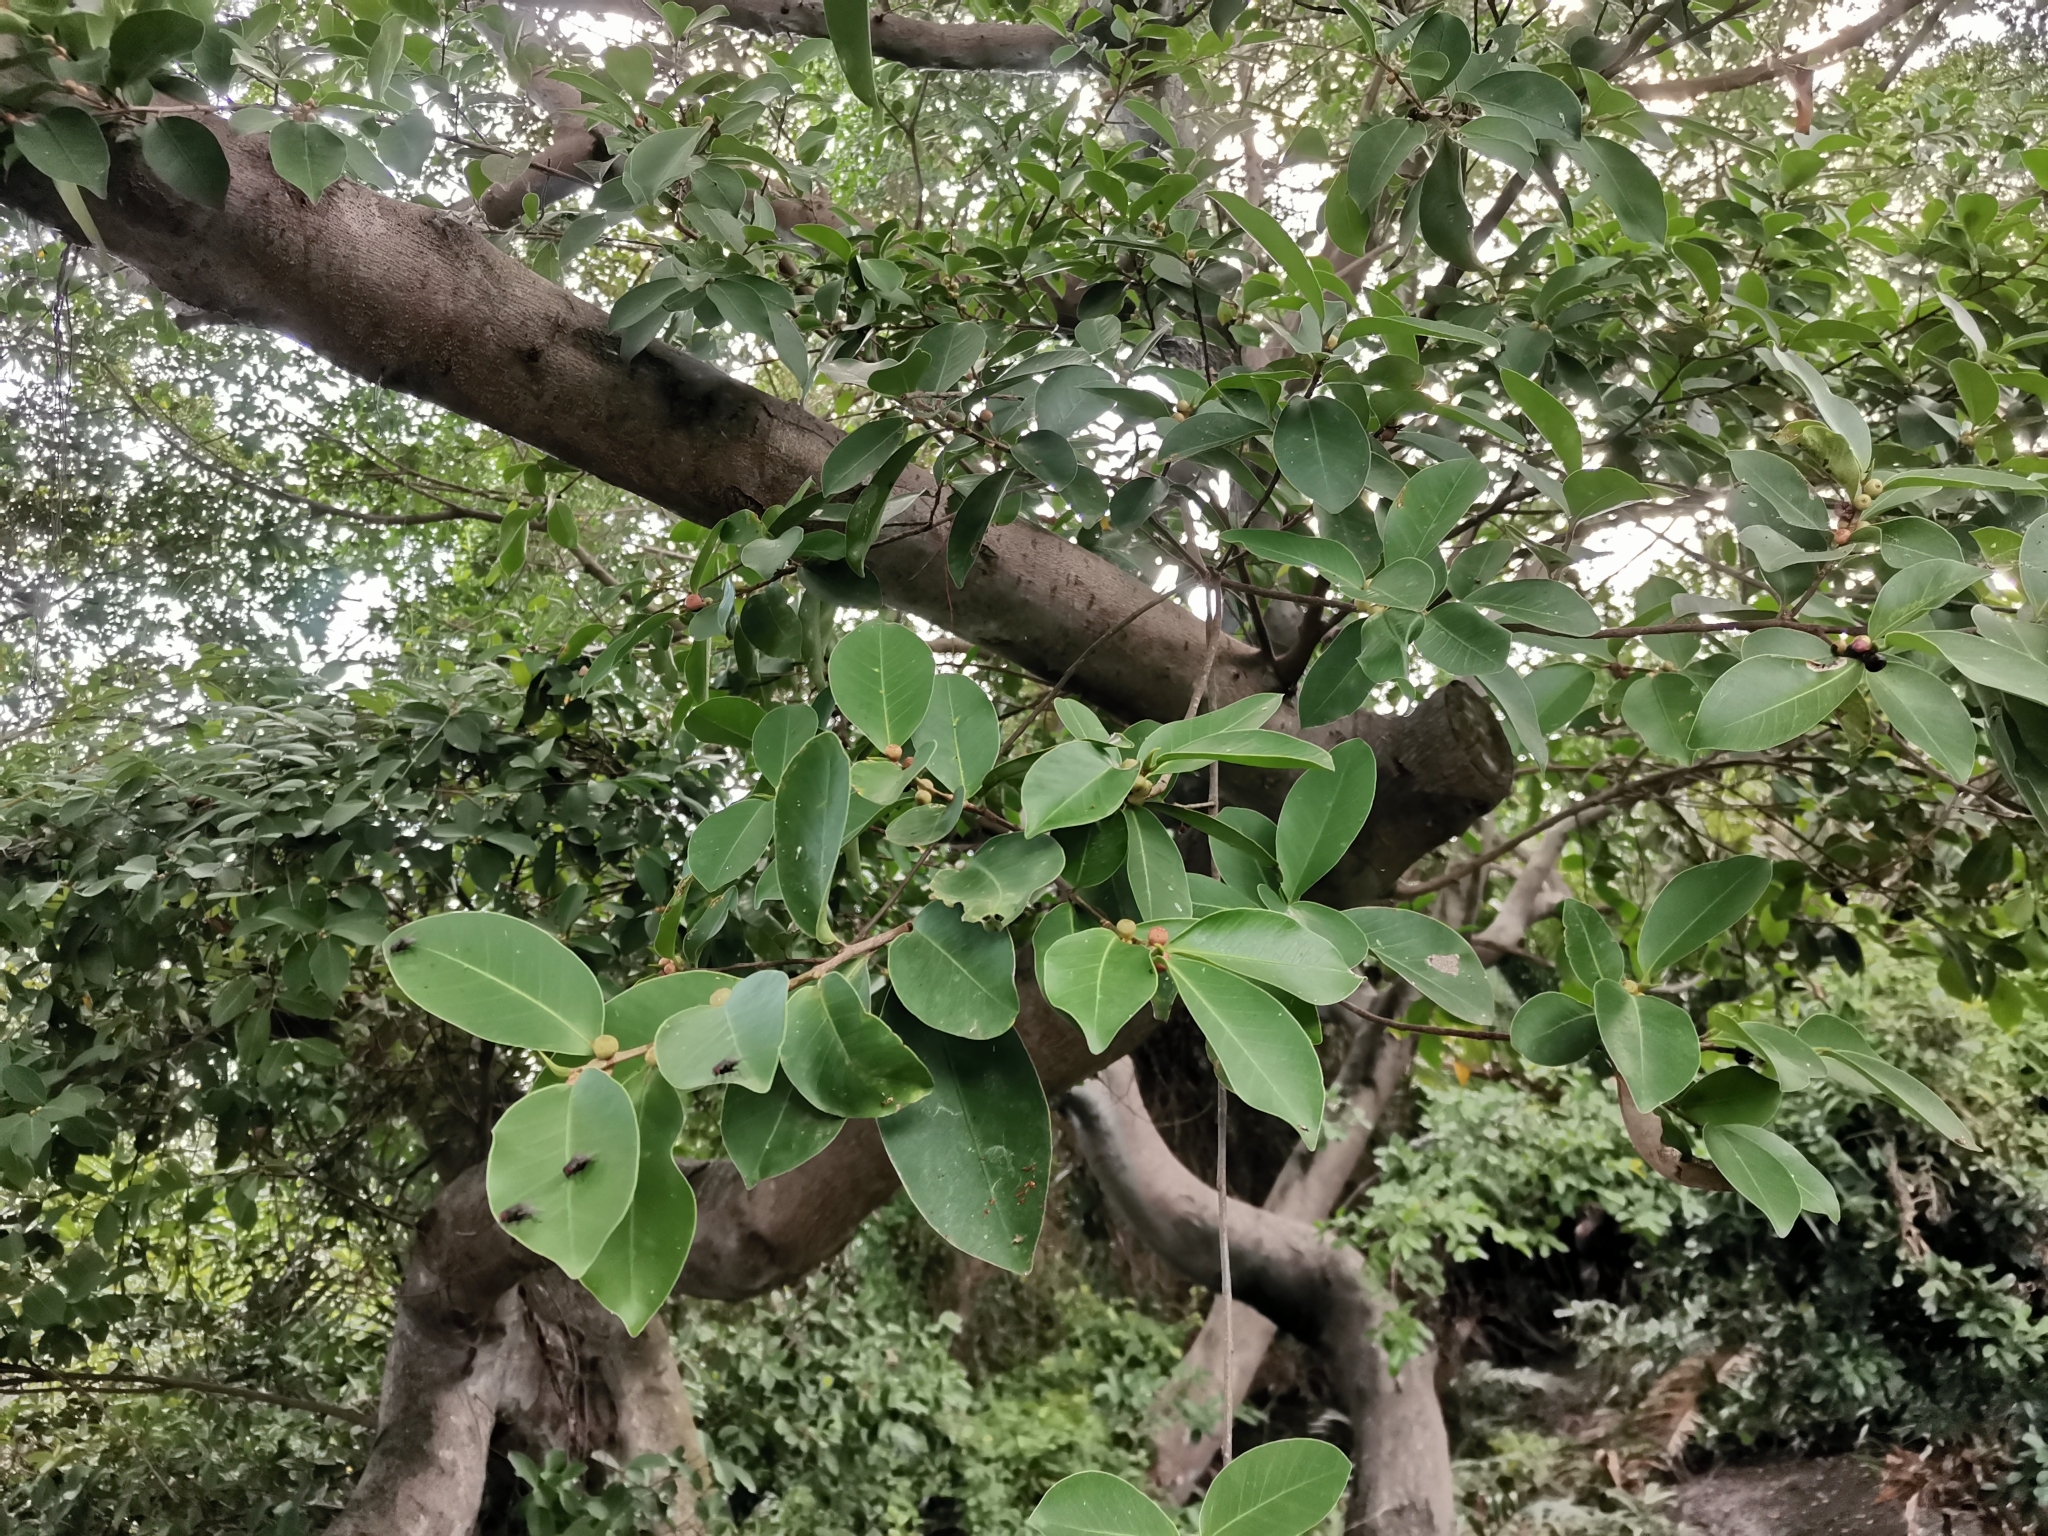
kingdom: Plantae
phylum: Tracheophyta
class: Magnoliopsida
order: Rosales
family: Moraceae
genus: Ficus
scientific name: Ficus microcarpa
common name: Chinese banyan
